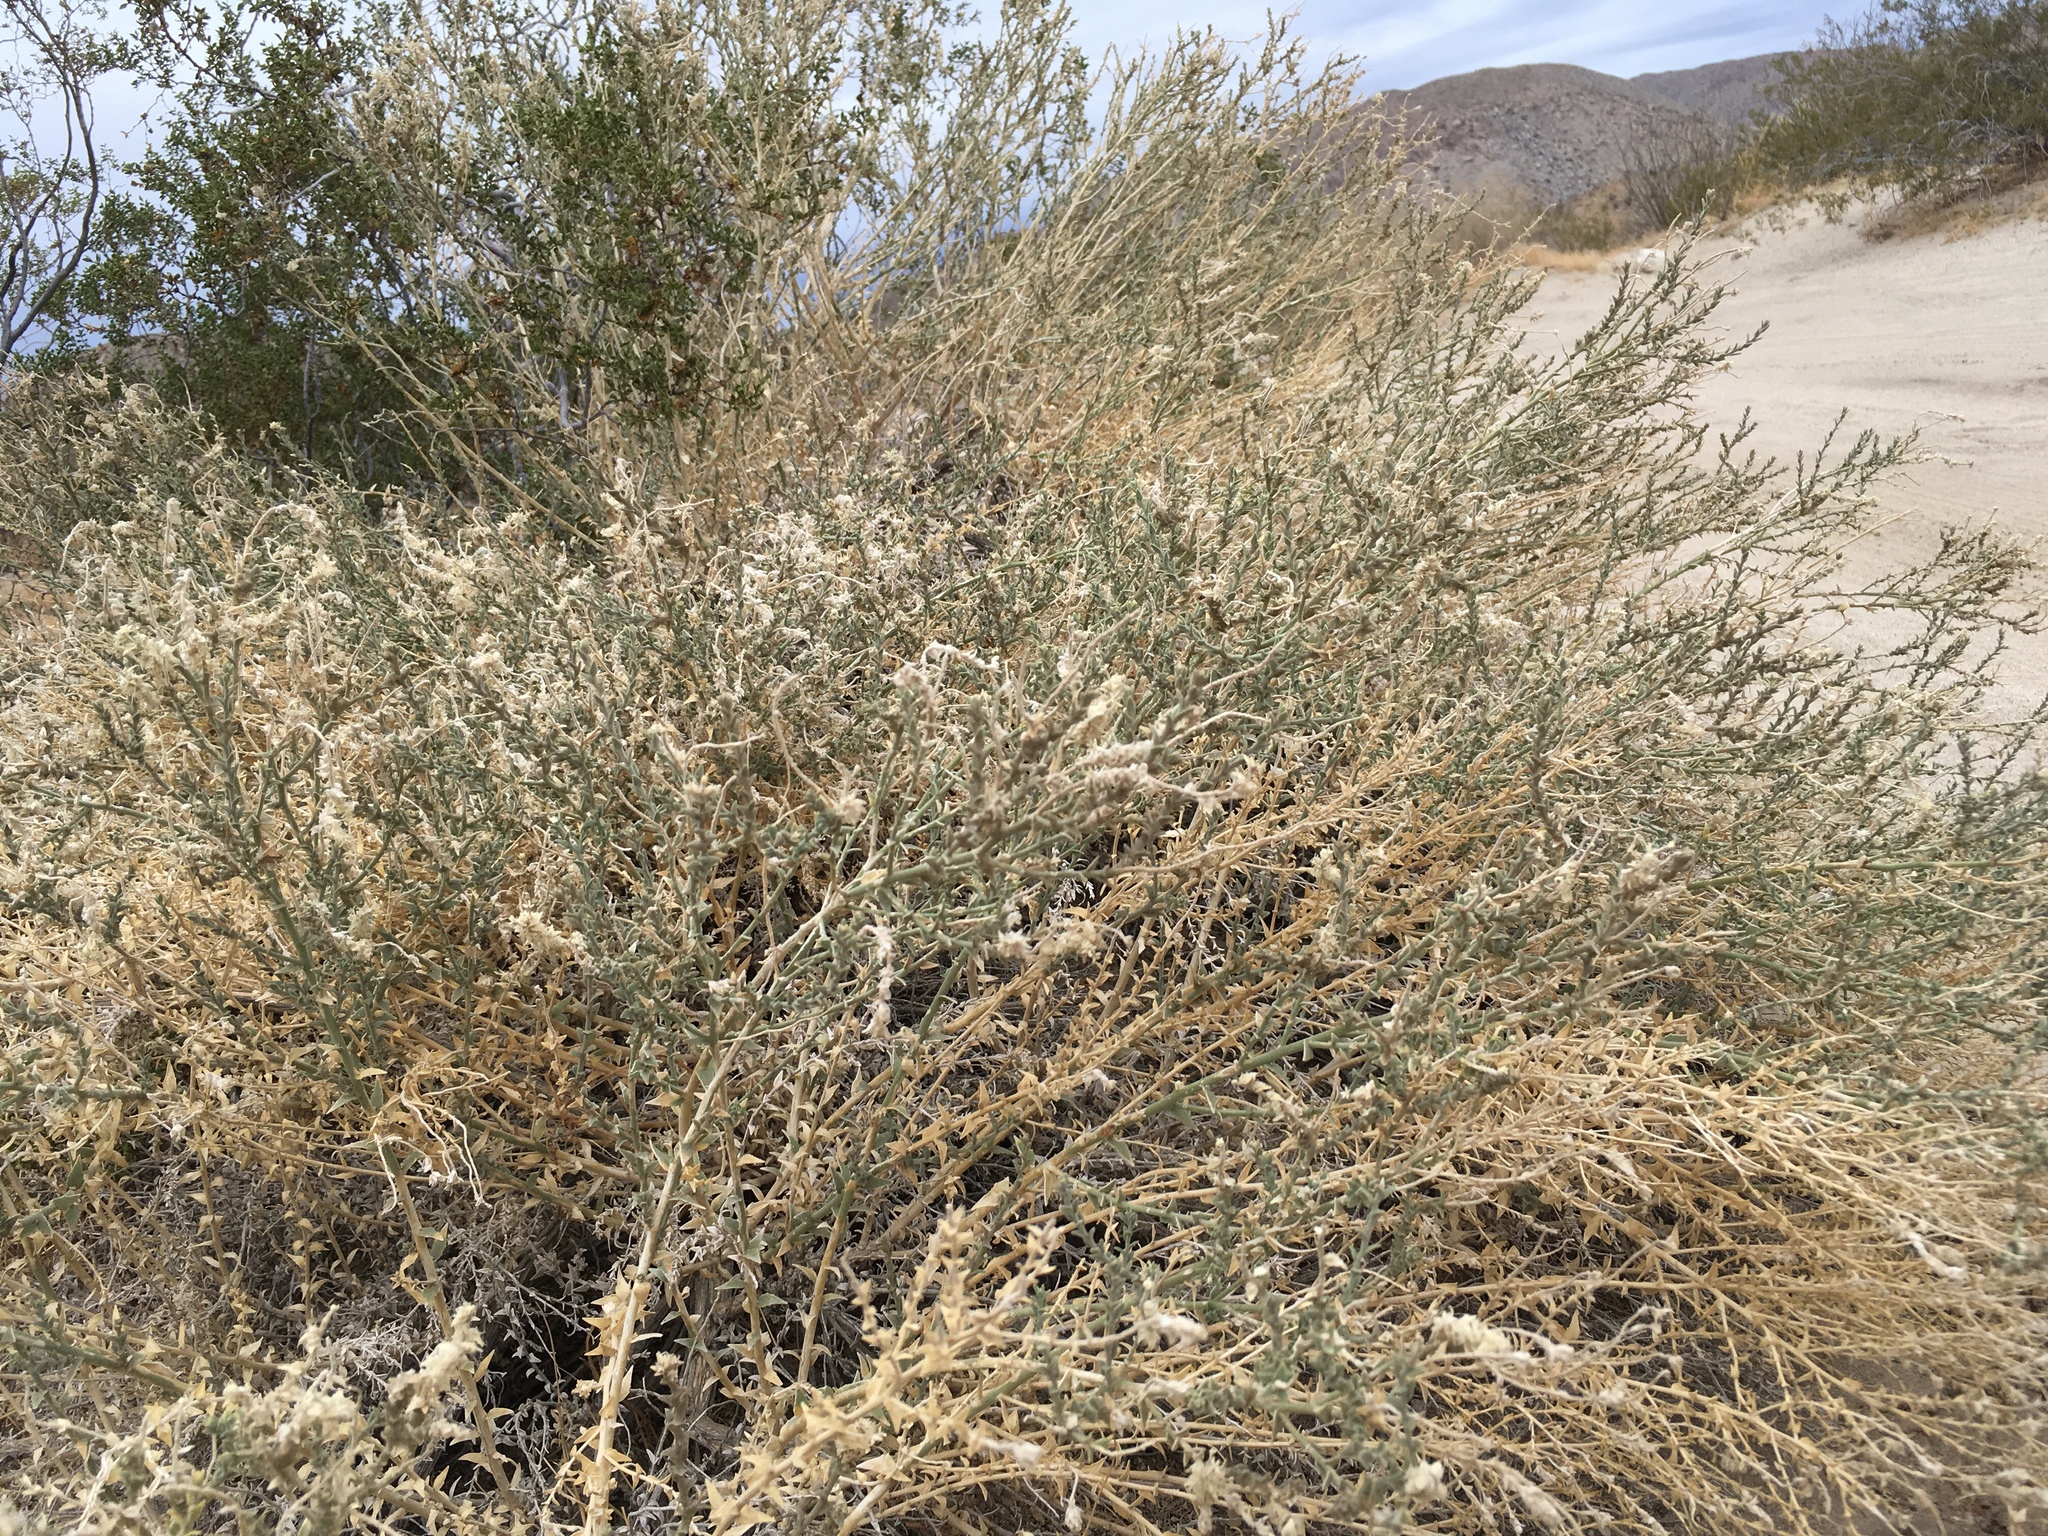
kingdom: Plantae
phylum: Tracheophyta
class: Magnoliopsida
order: Cornales
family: Loasaceae
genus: Petalonyx
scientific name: Petalonyx thurberi
